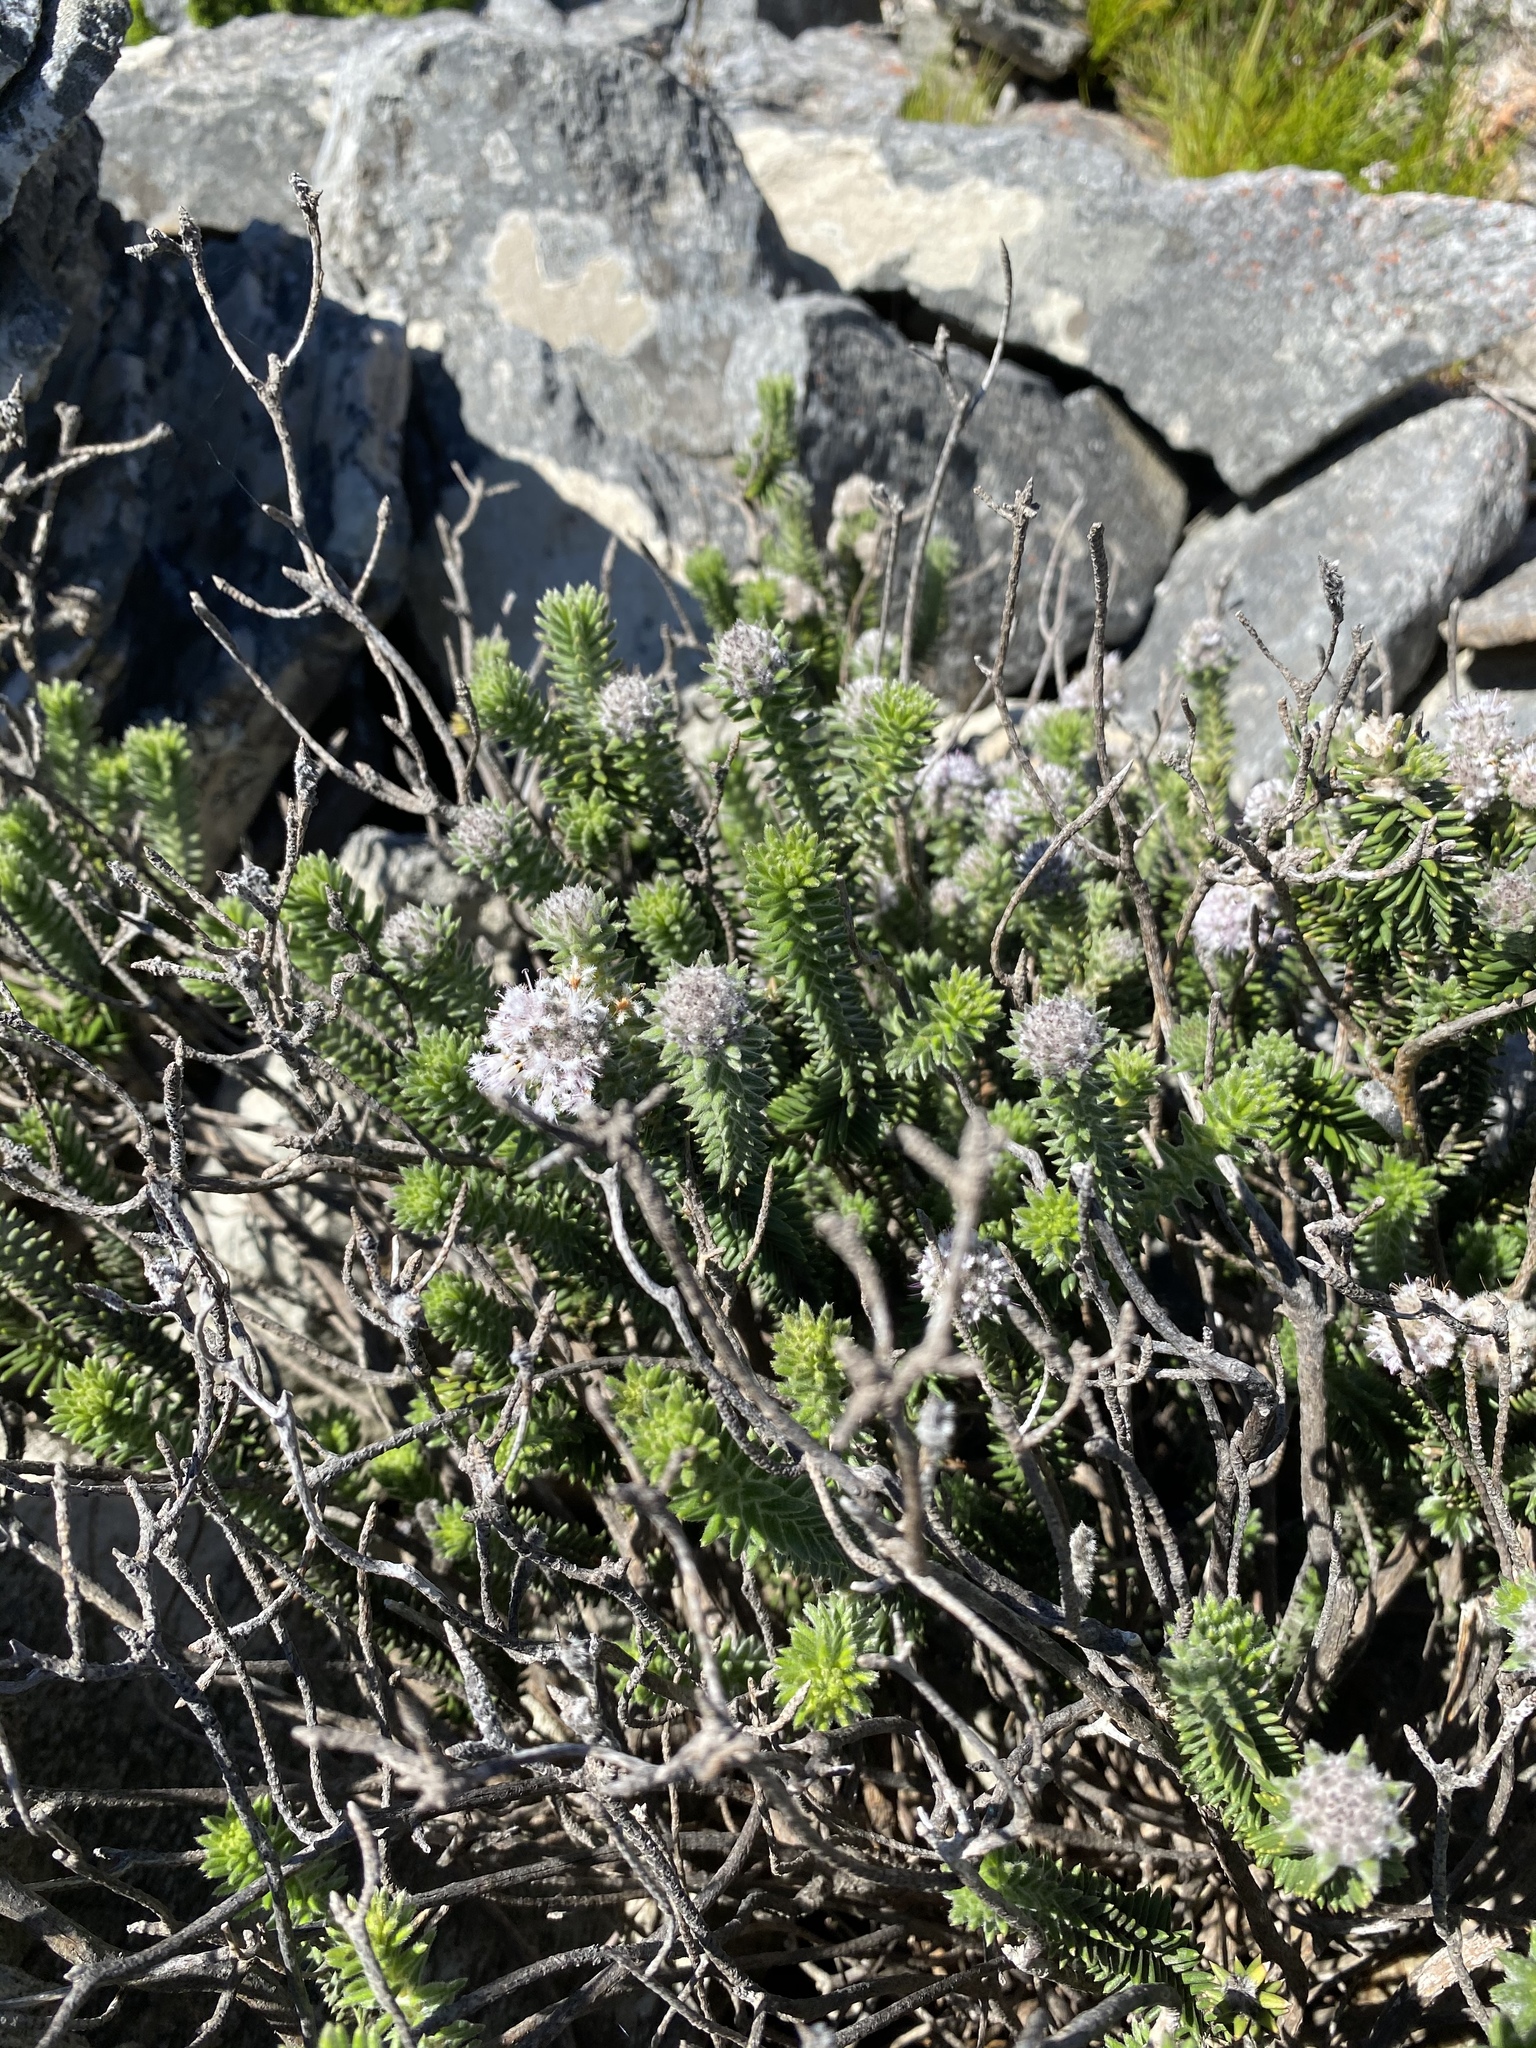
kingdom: Plantae
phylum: Tracheophyta
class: Magnoliopsida
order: Lamiales
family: Stilbaceae
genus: Kogelbergia
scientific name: Kogelbergia verticillata
